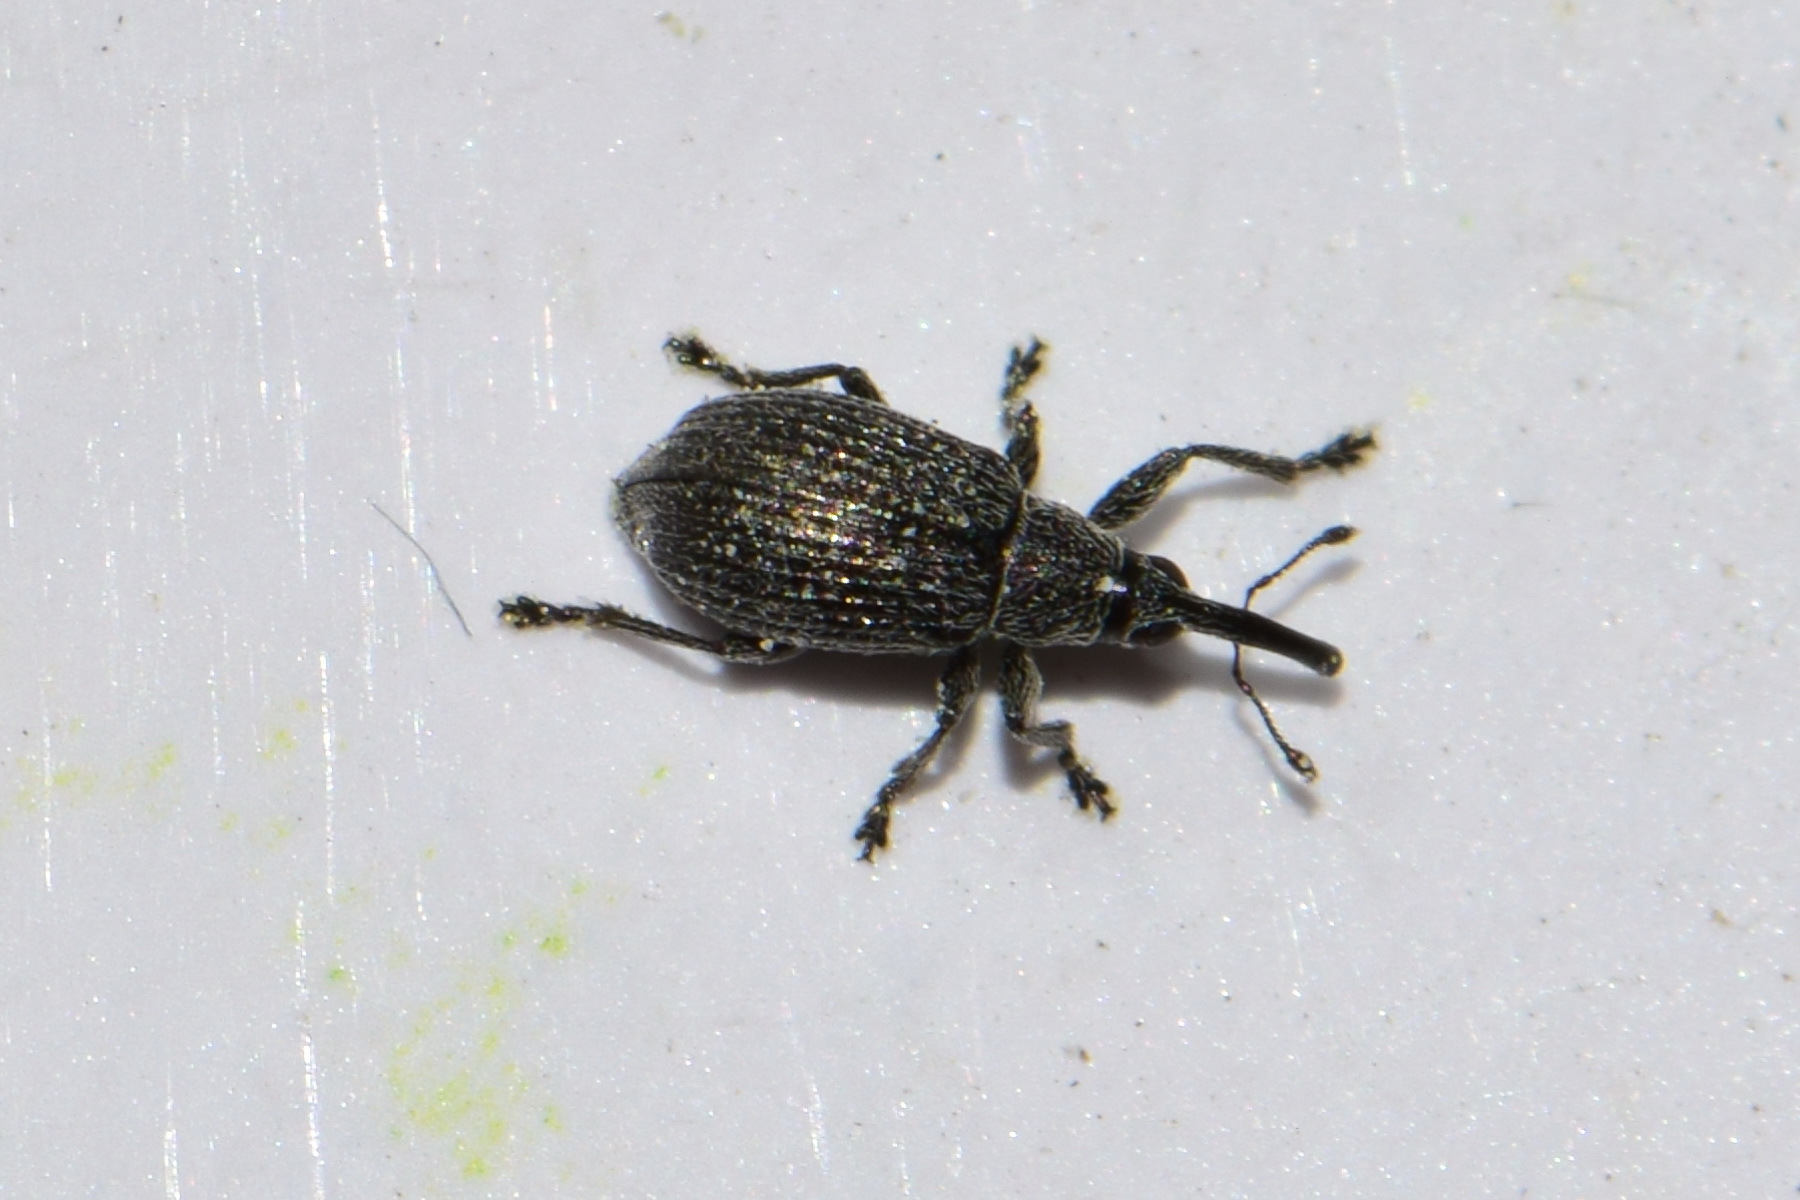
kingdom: Animalia
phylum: Arthropoda
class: Insecta
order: Coleoptera
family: Brentidae
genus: Betulapion
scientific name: Betulapion simile
